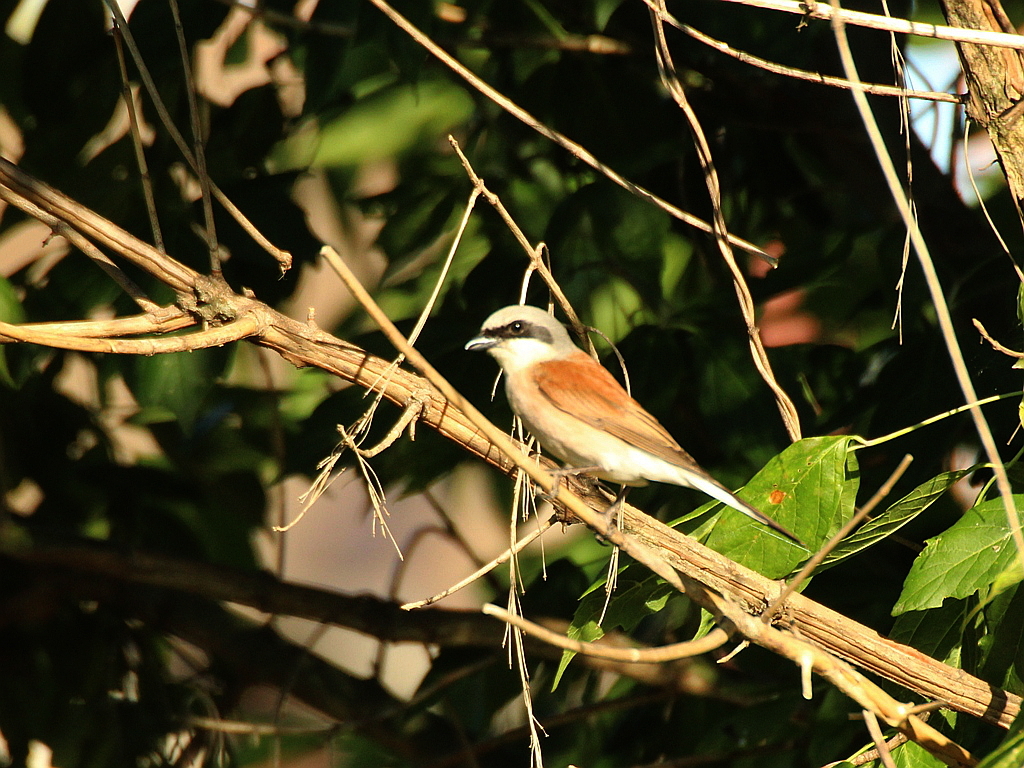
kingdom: Animalia
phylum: Chordata
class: Aves
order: Passeriformes
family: Laniidae
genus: Lanius
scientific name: Lanius collurio
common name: Red-backed shrike
